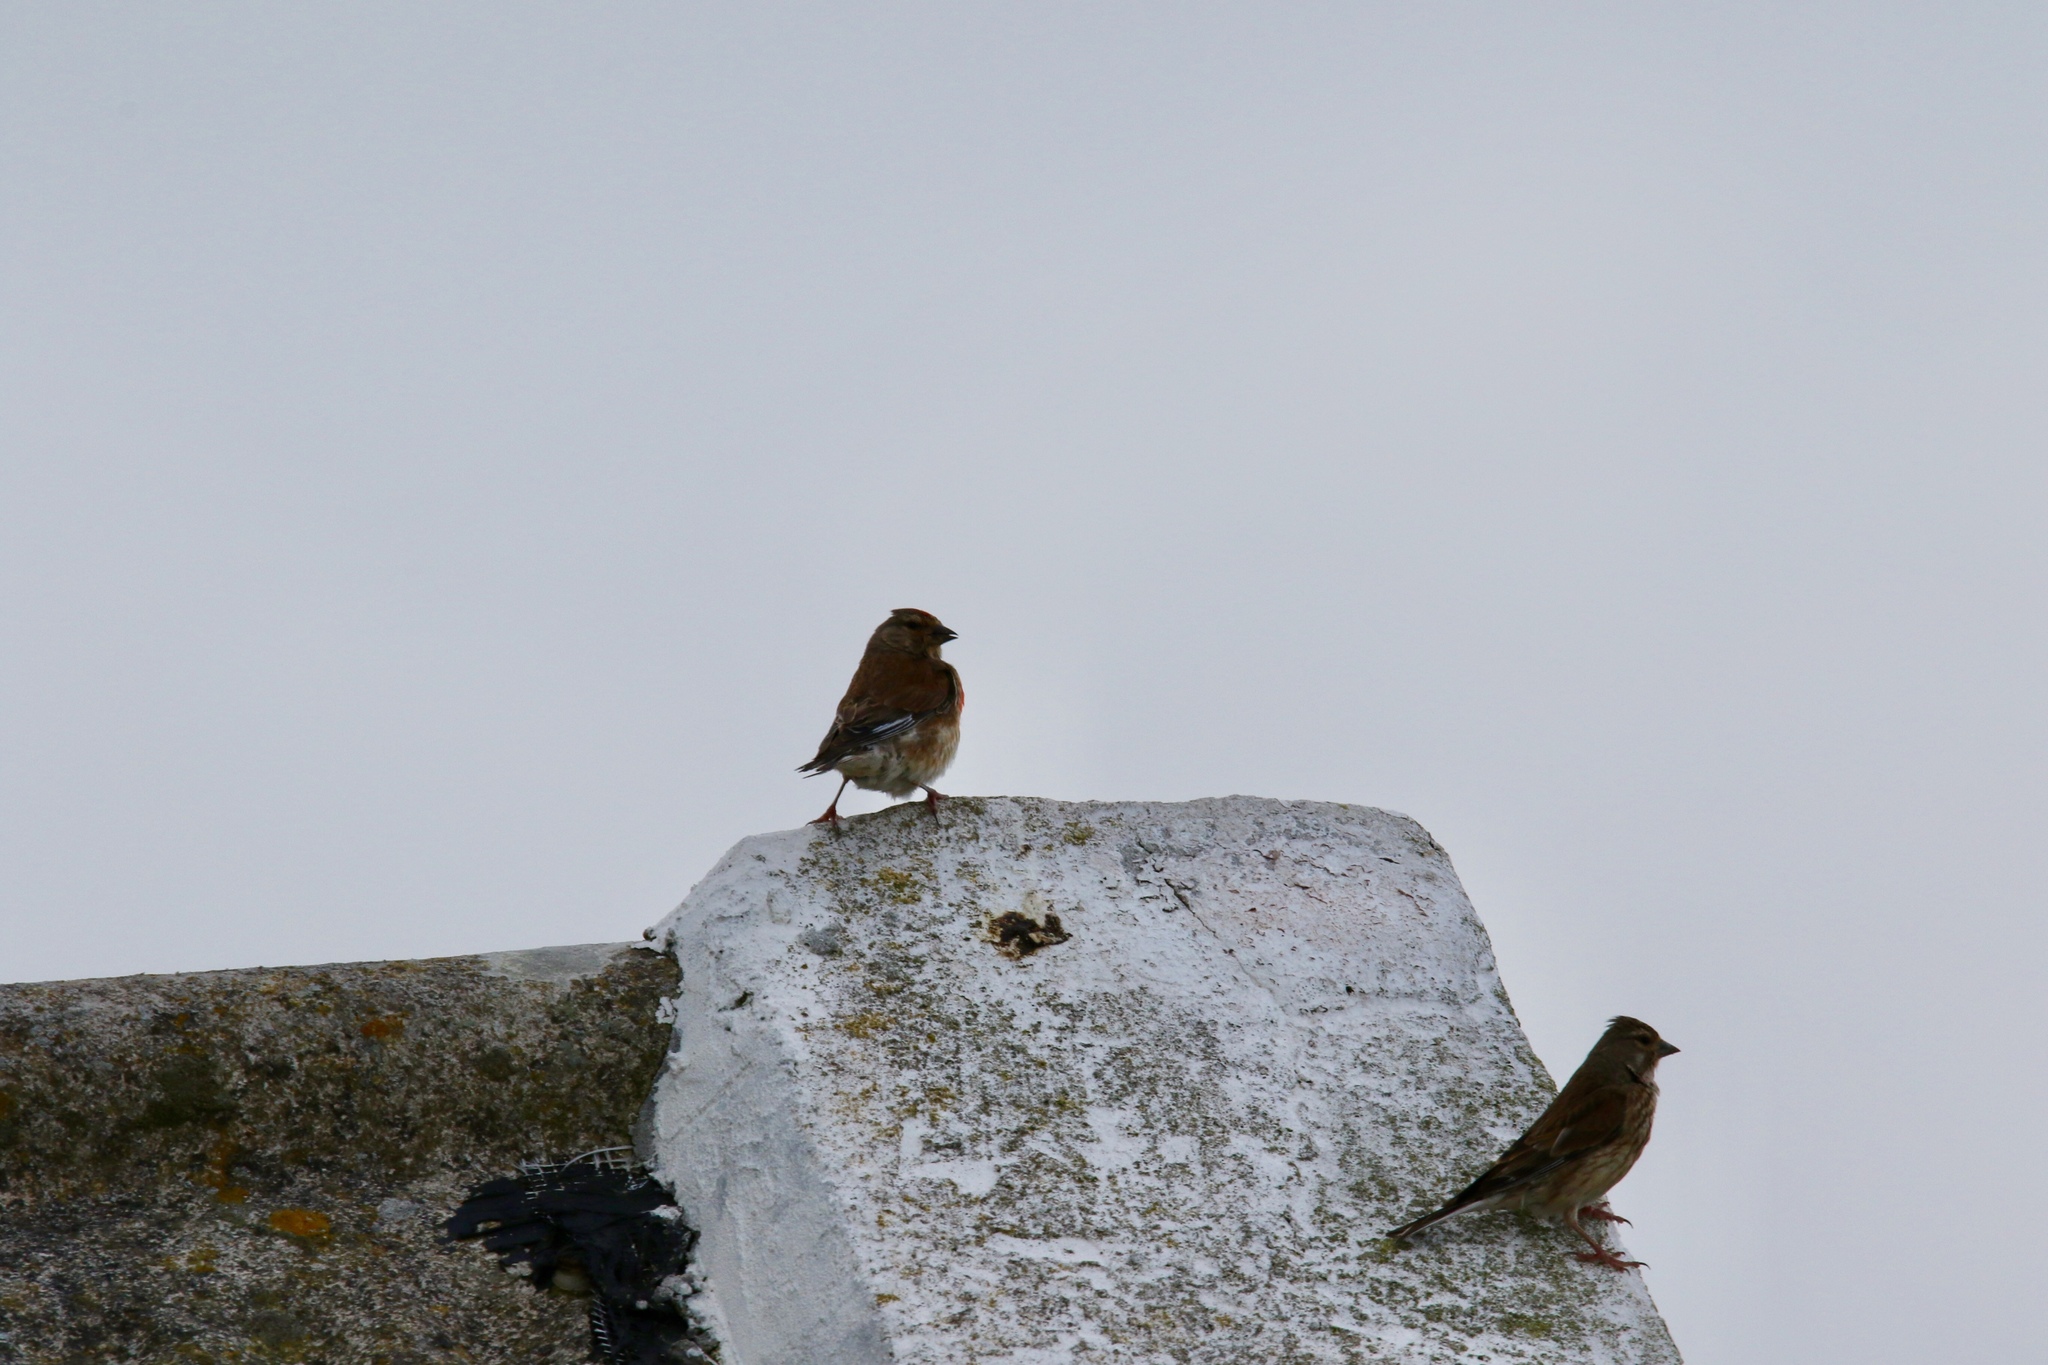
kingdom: Animalia
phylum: Chordata
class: Aves
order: Passeriformes
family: Fringillidae
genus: Linaria
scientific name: Linaria cannabina
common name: Common linnet
